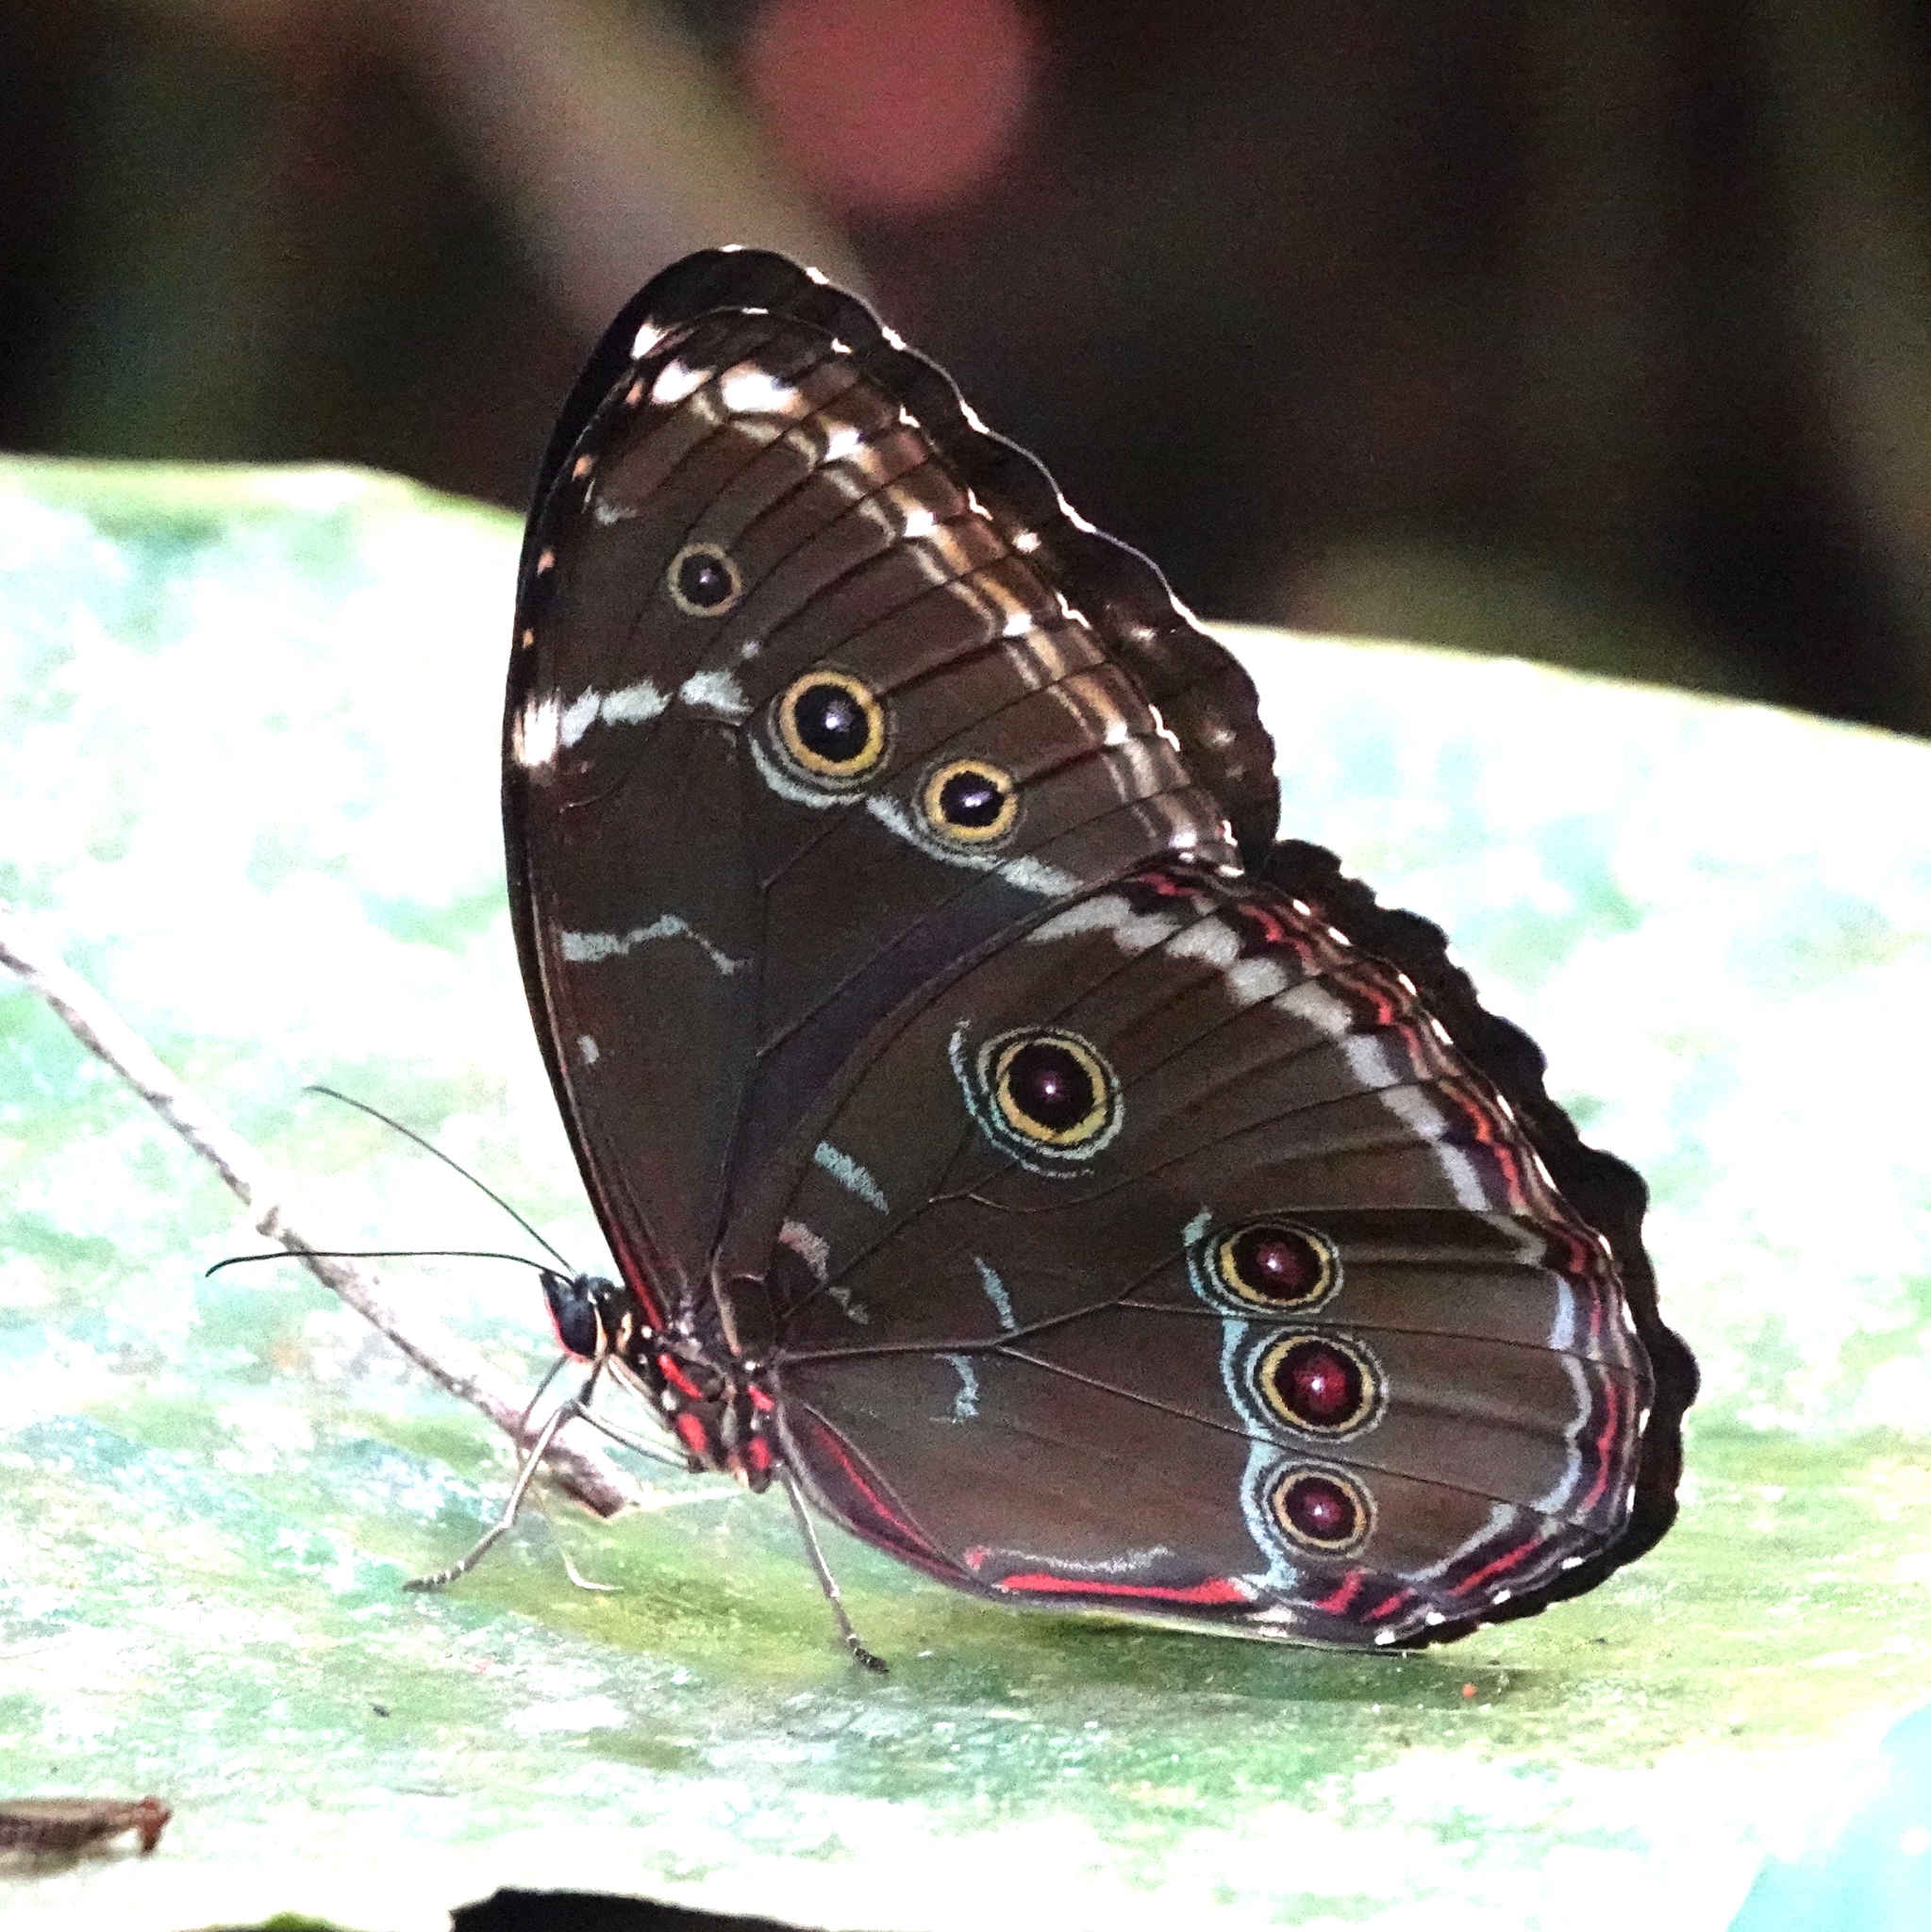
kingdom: Animalia
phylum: Arthropoda
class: Insecta
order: Lepidoptera
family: Nymphalidae
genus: Morpho
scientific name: Morpho helenor
